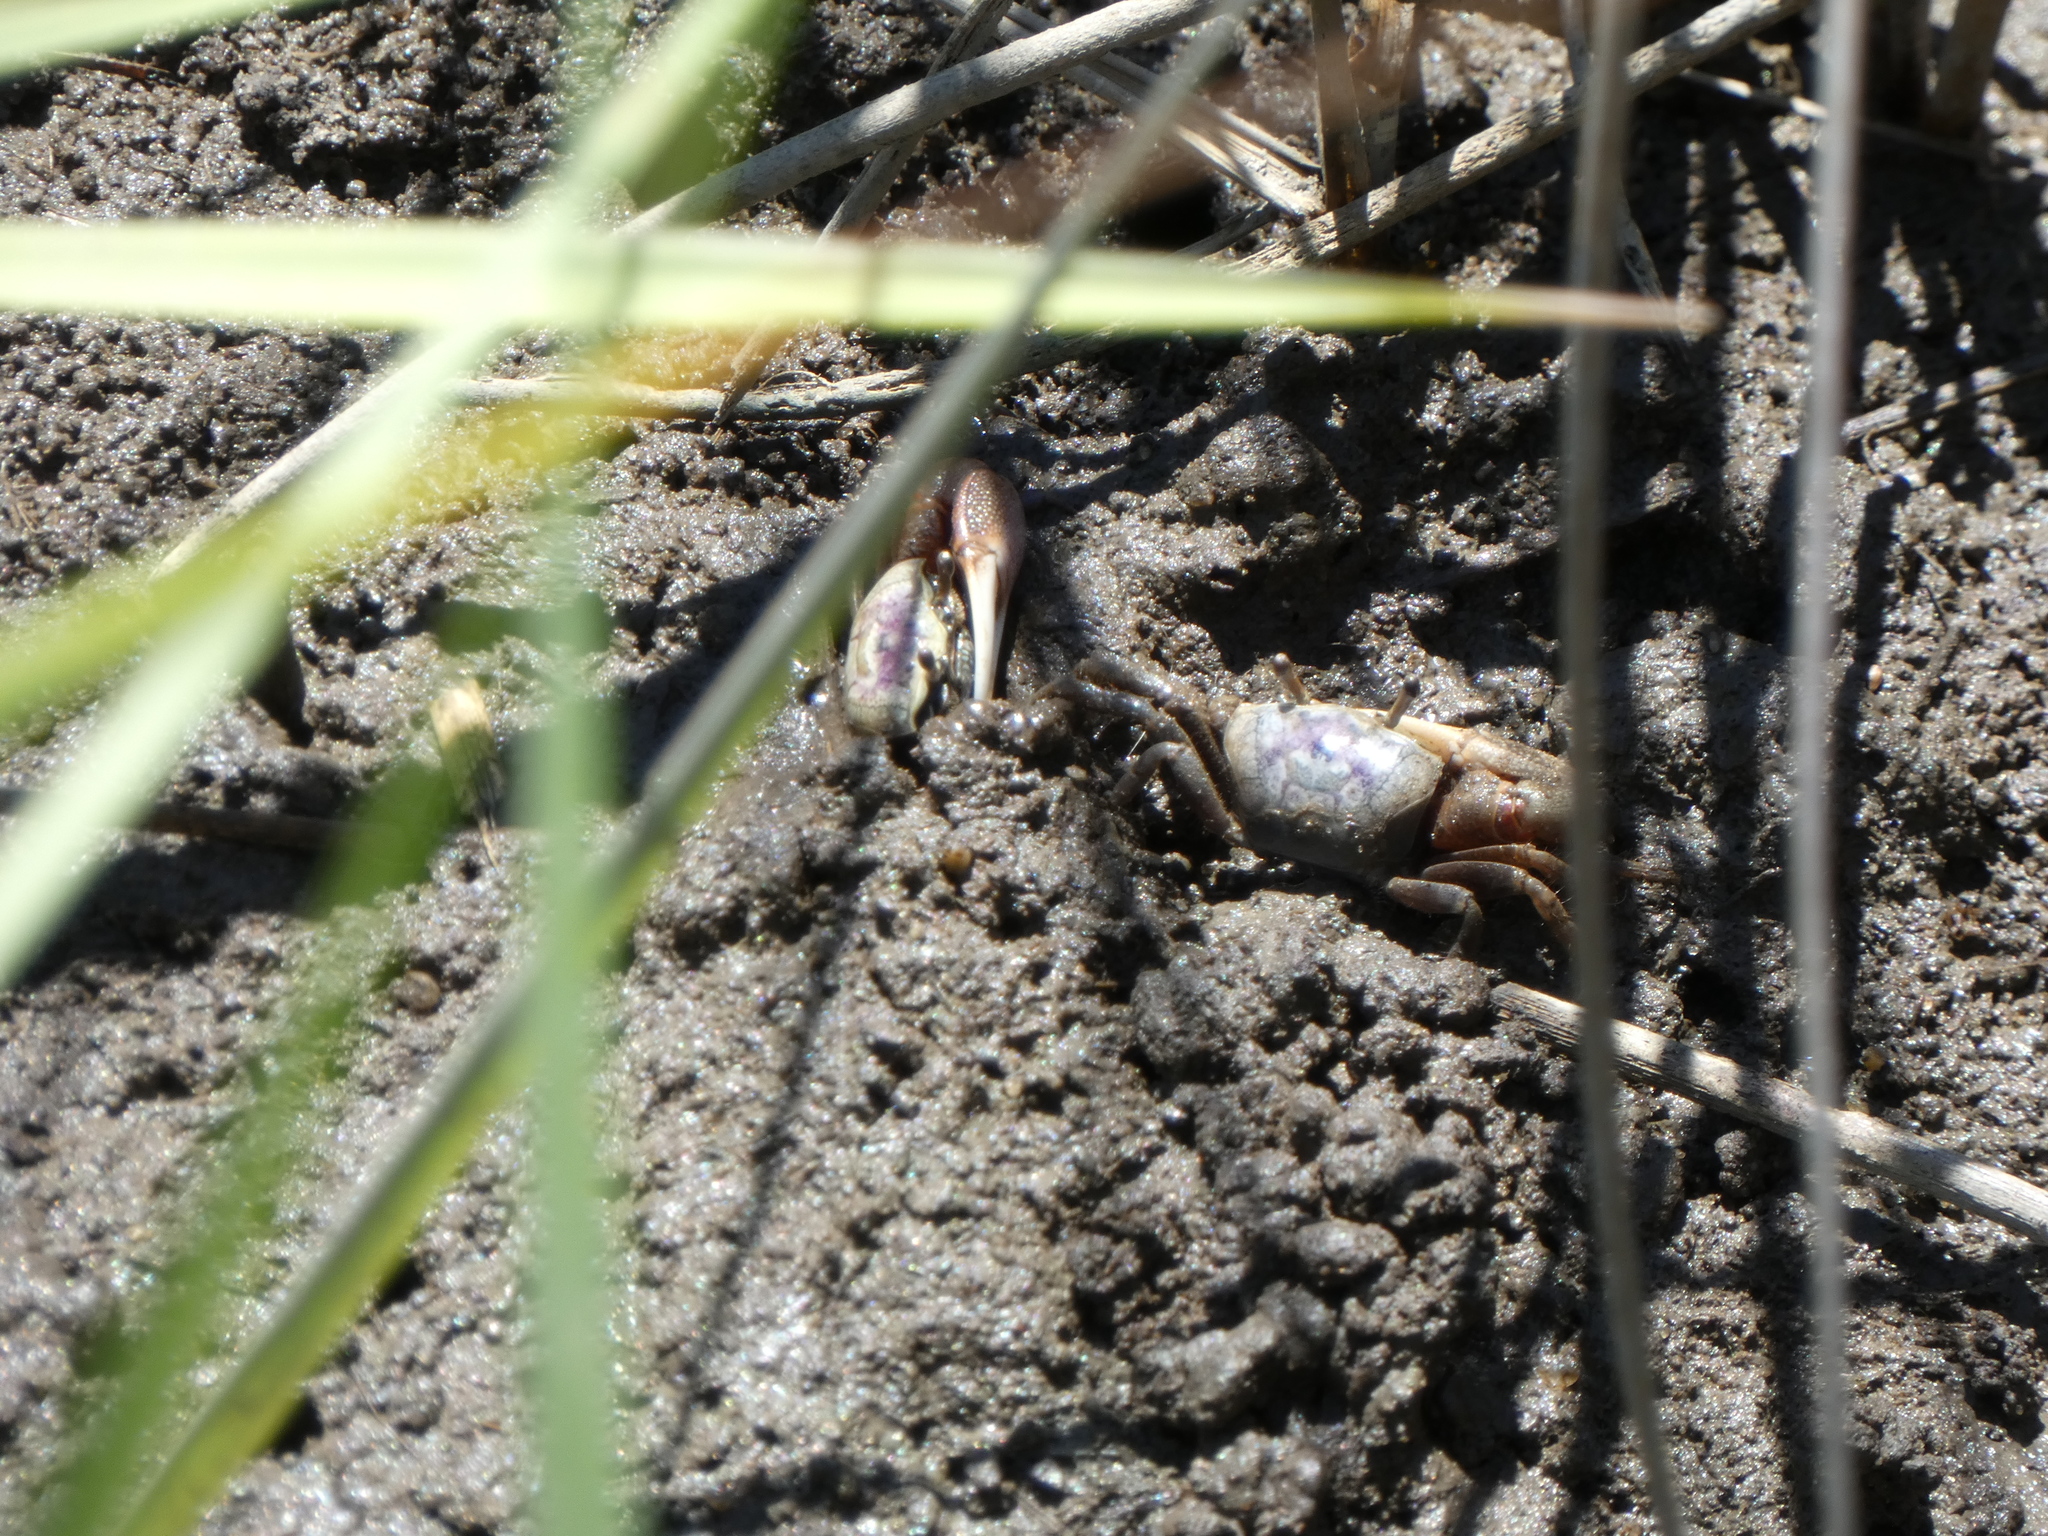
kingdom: Animalia
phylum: Arthropoda
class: Malacostraca
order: Decapoda
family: Ocypodidae
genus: Leptuca
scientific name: Leptuca pugilator
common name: Atlantic sand fiddler crab
